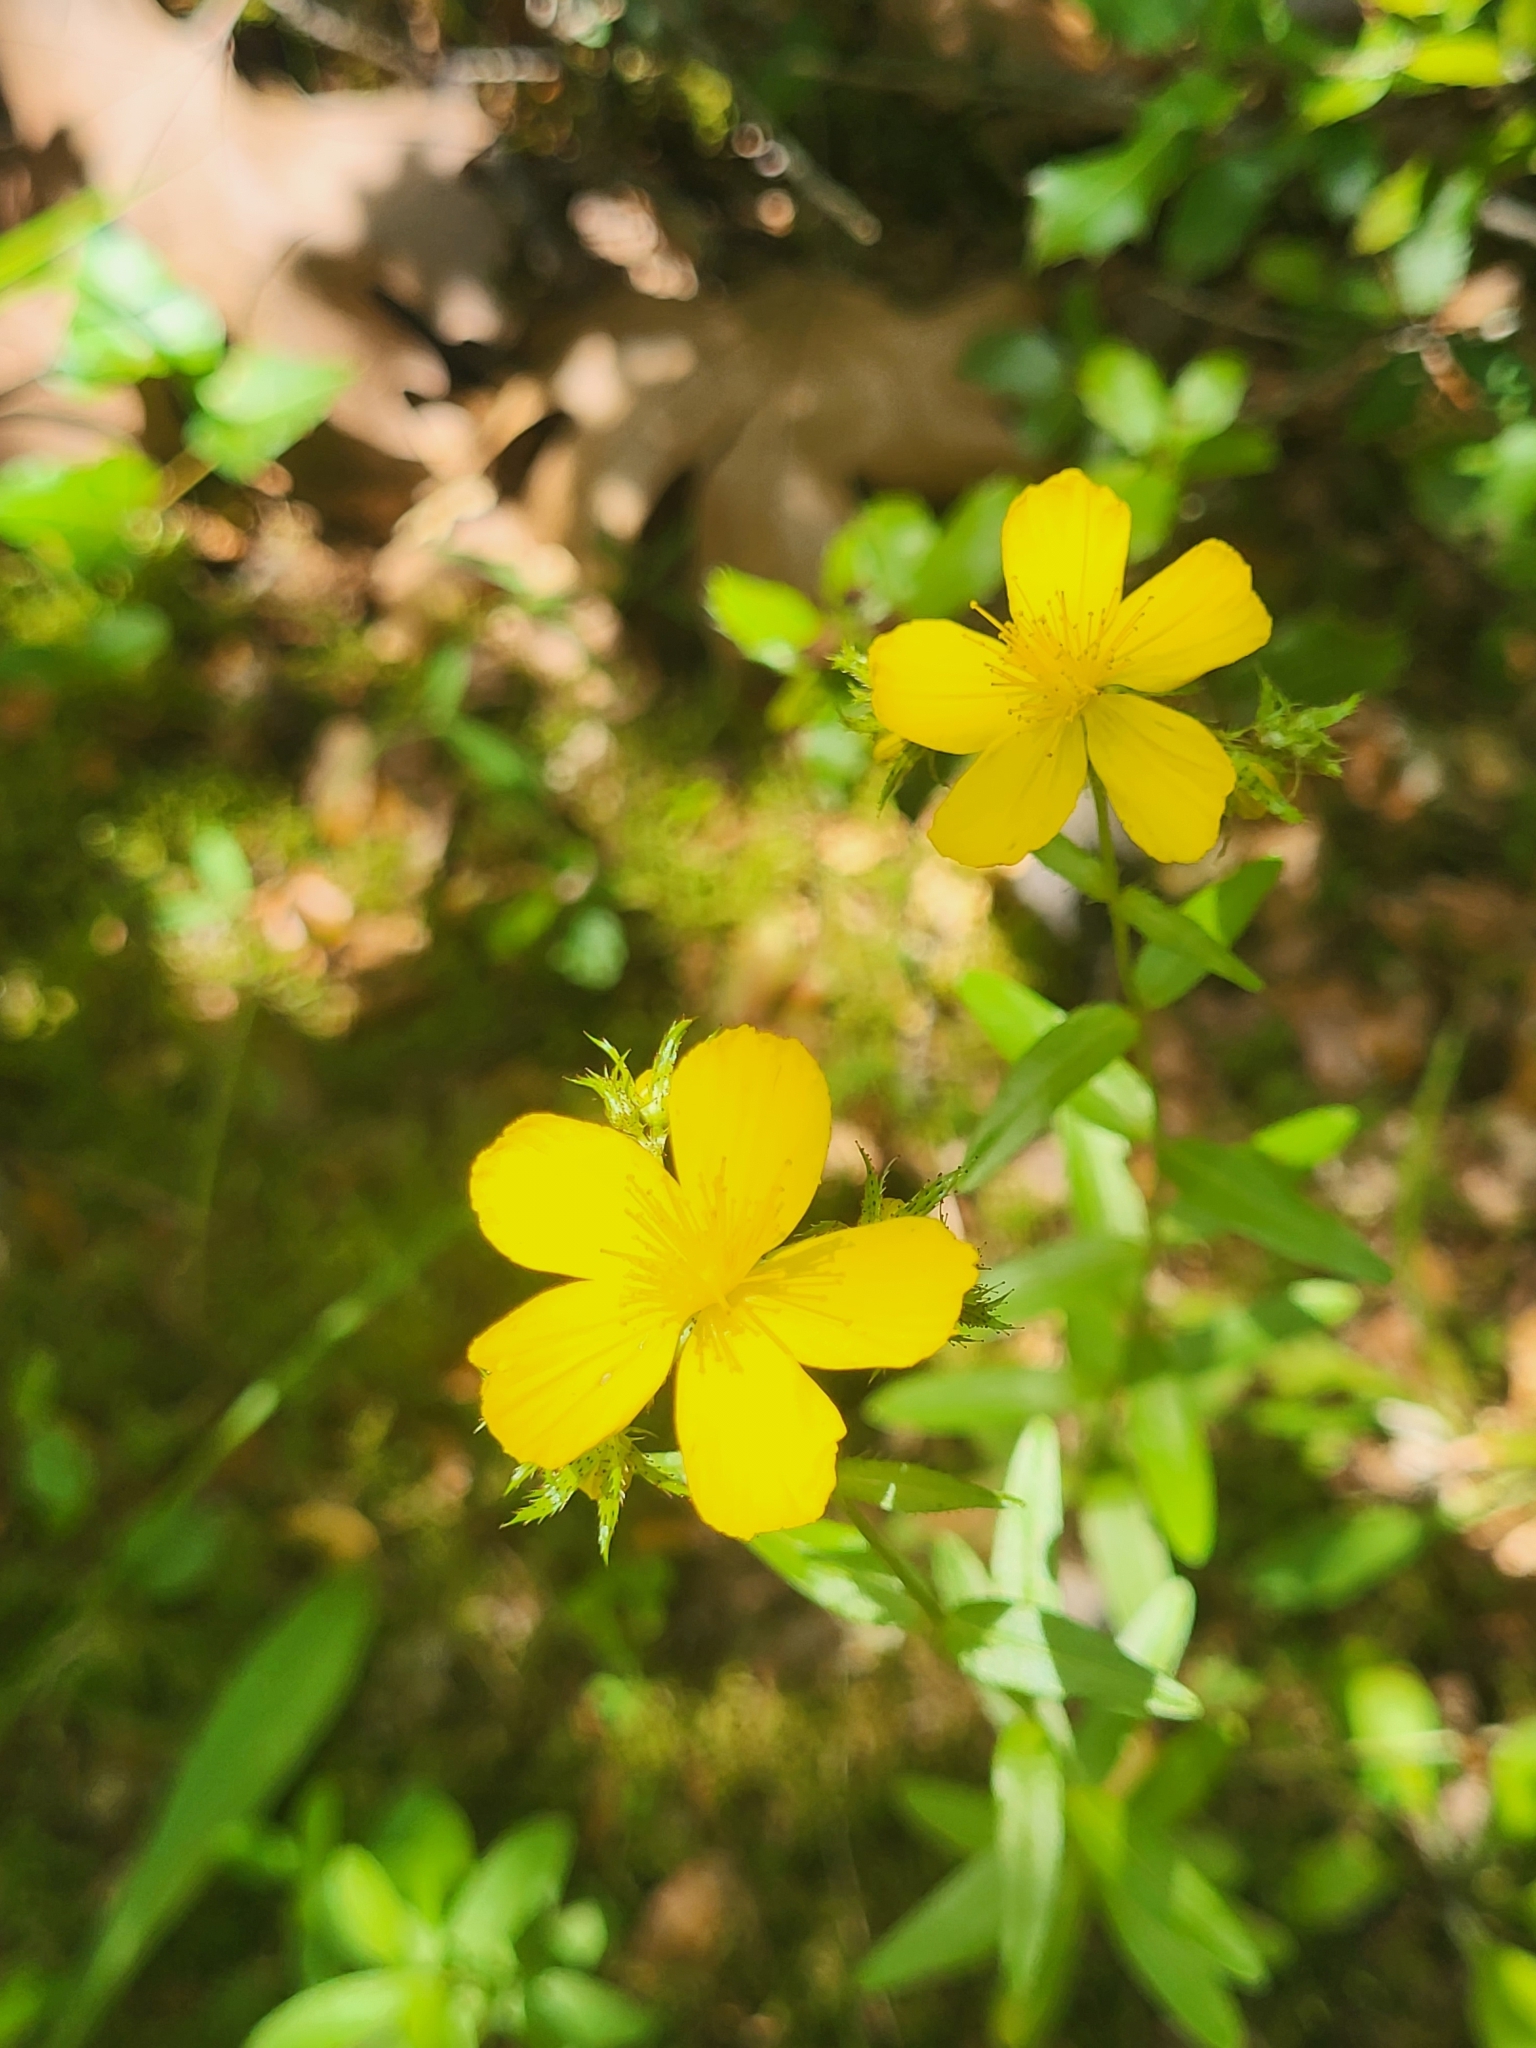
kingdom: Plantae
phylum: Tracheophyta
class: Magnoliopsida
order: Malpighiales
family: Hypericaceae
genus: Hypericum
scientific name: Hypericum spruneri
